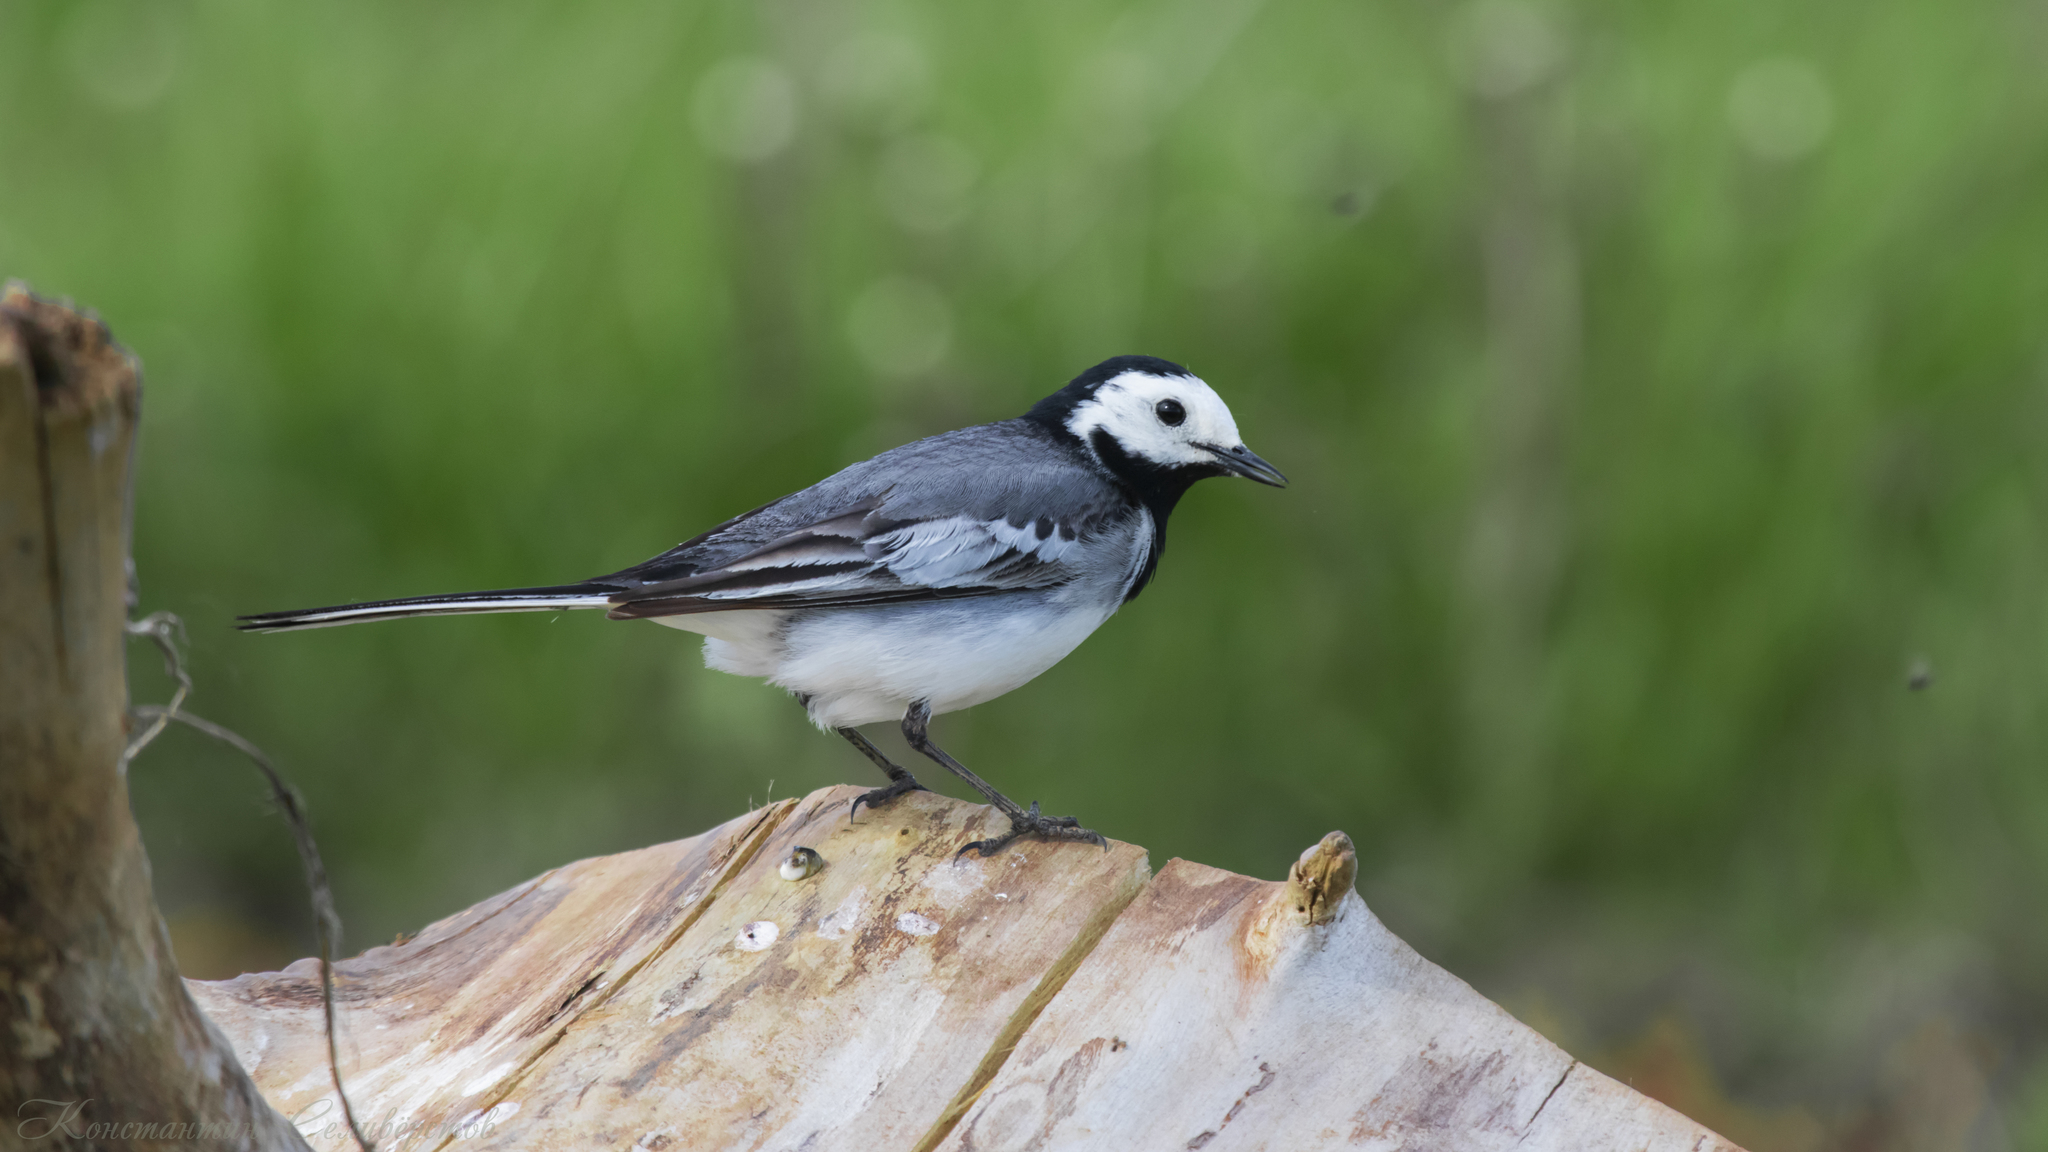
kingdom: Animalia
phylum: Chordata
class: Aves
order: Passeriformes
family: Motacillidae
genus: Motacilla
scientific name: Motacilla alba
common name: White wagtail
